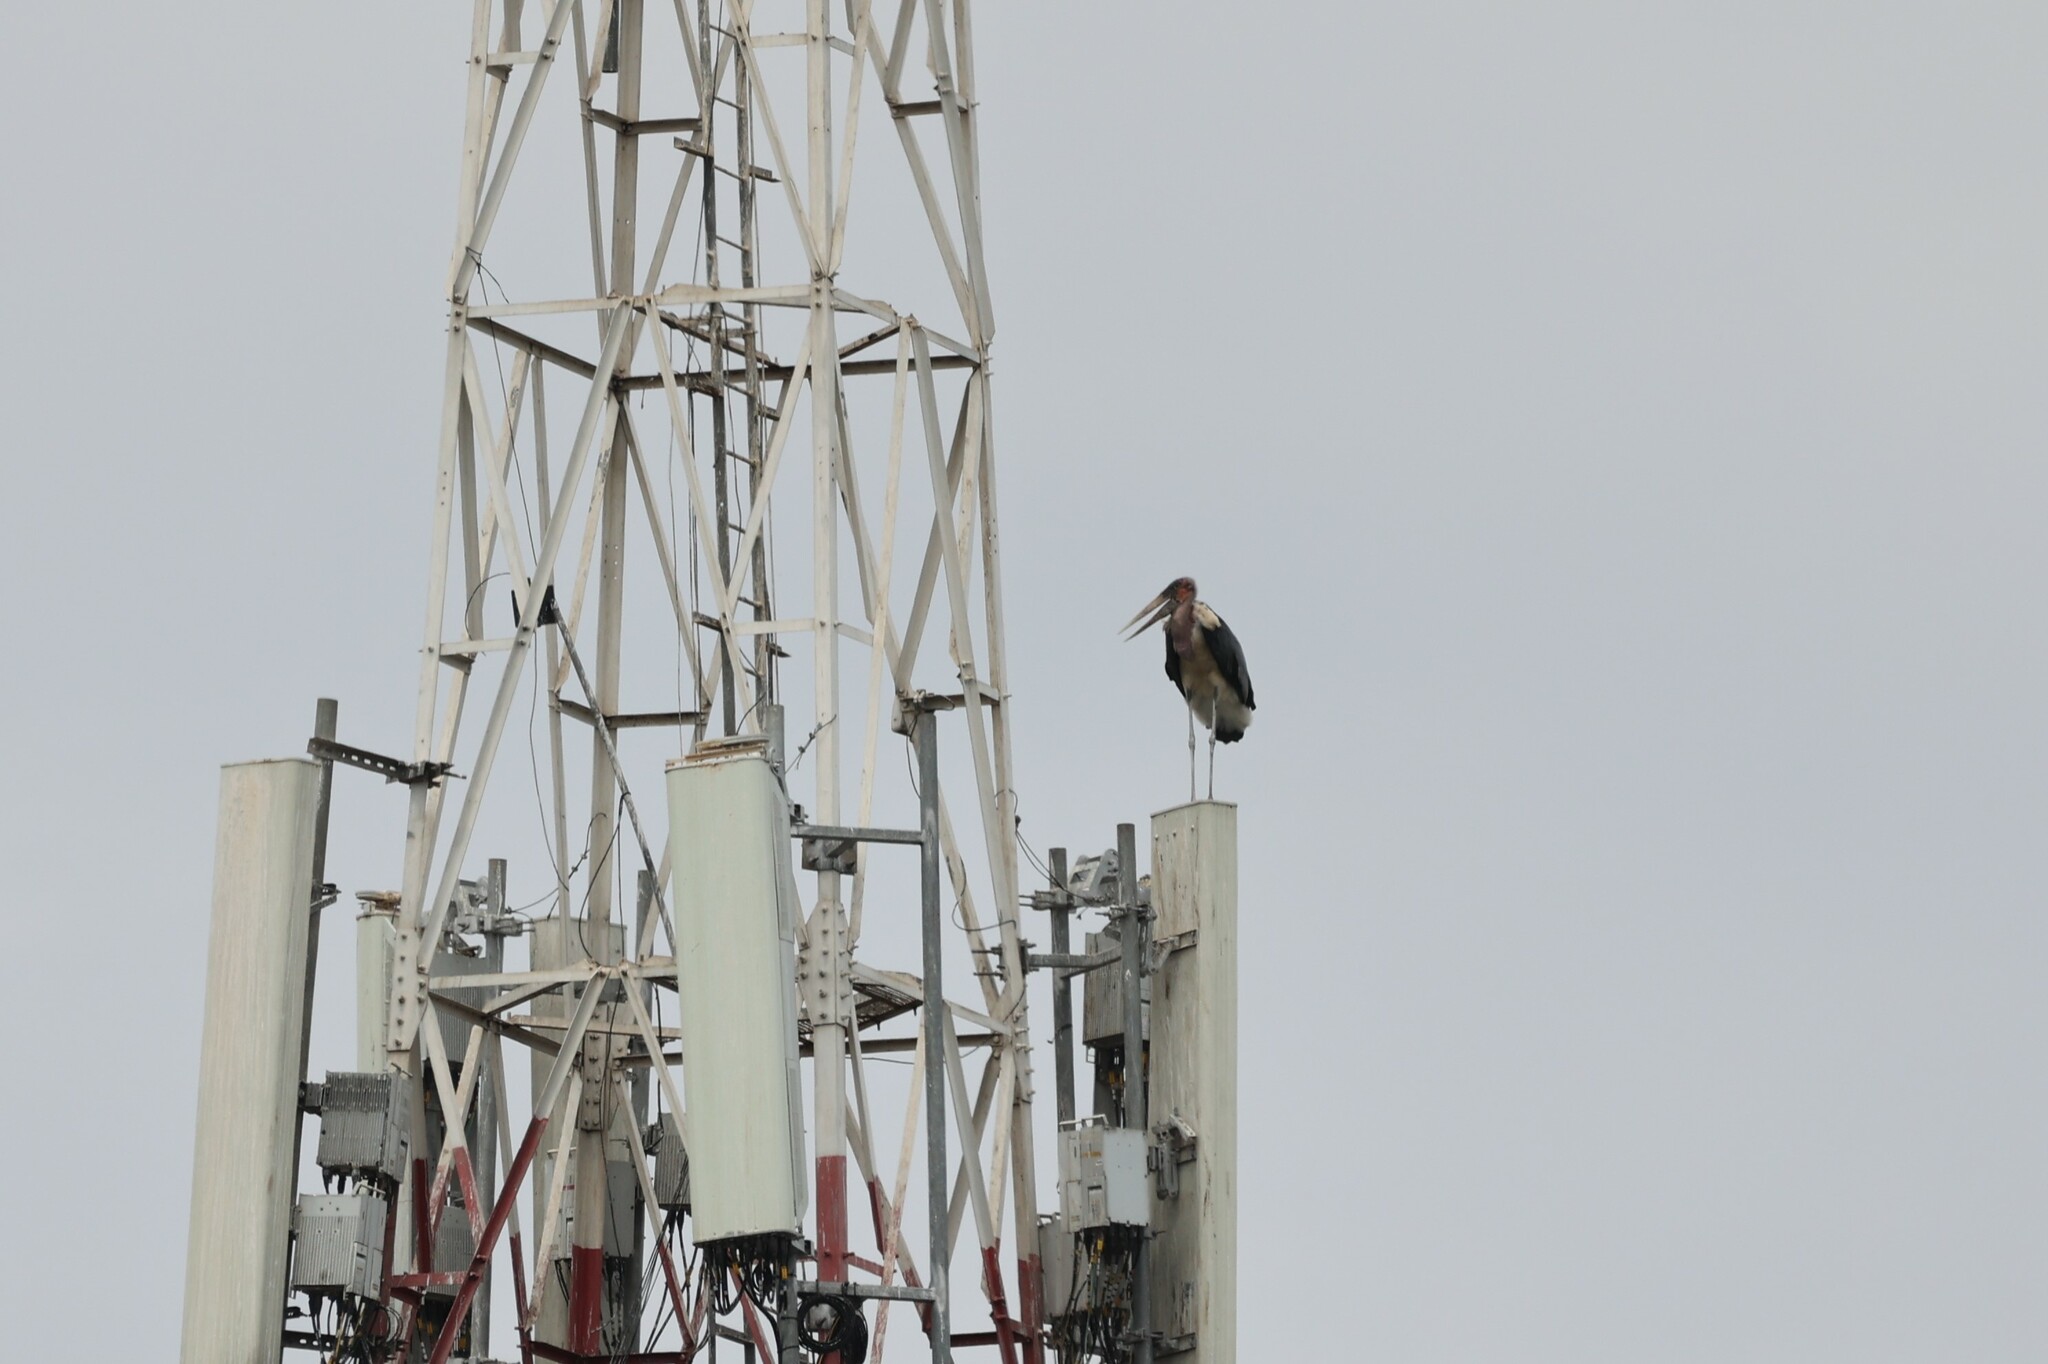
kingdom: Animalia
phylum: Chordata
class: Aves
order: Ciconiiformes
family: Ciconiidae
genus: Leptoptilos
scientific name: Leptoptilos crumenifer
